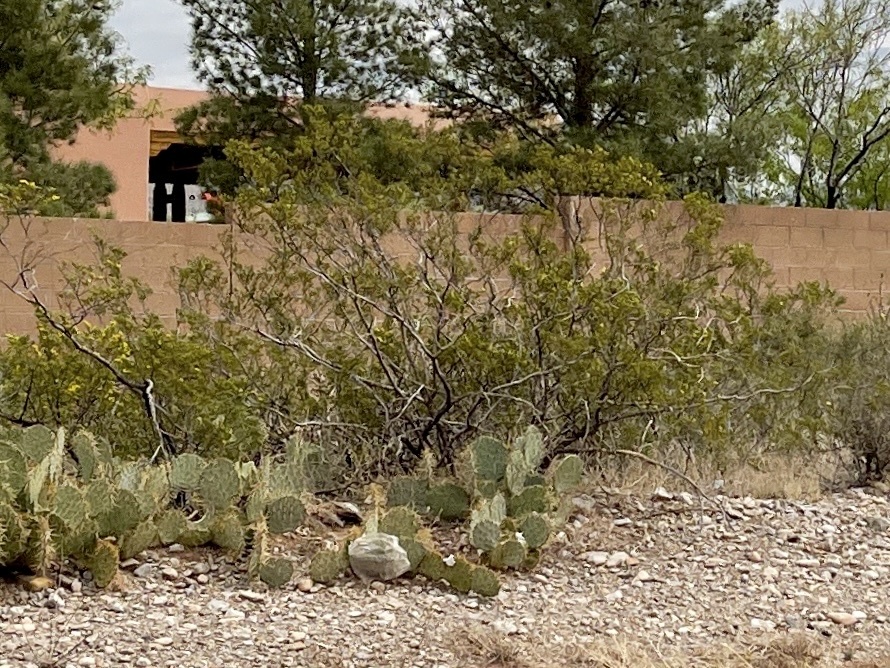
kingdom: Plantae
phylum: Tracheophyta
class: Magnoliopsida
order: Zygophyllales
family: Zygophyllaceae
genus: Larrea
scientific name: Larrea tridentata
